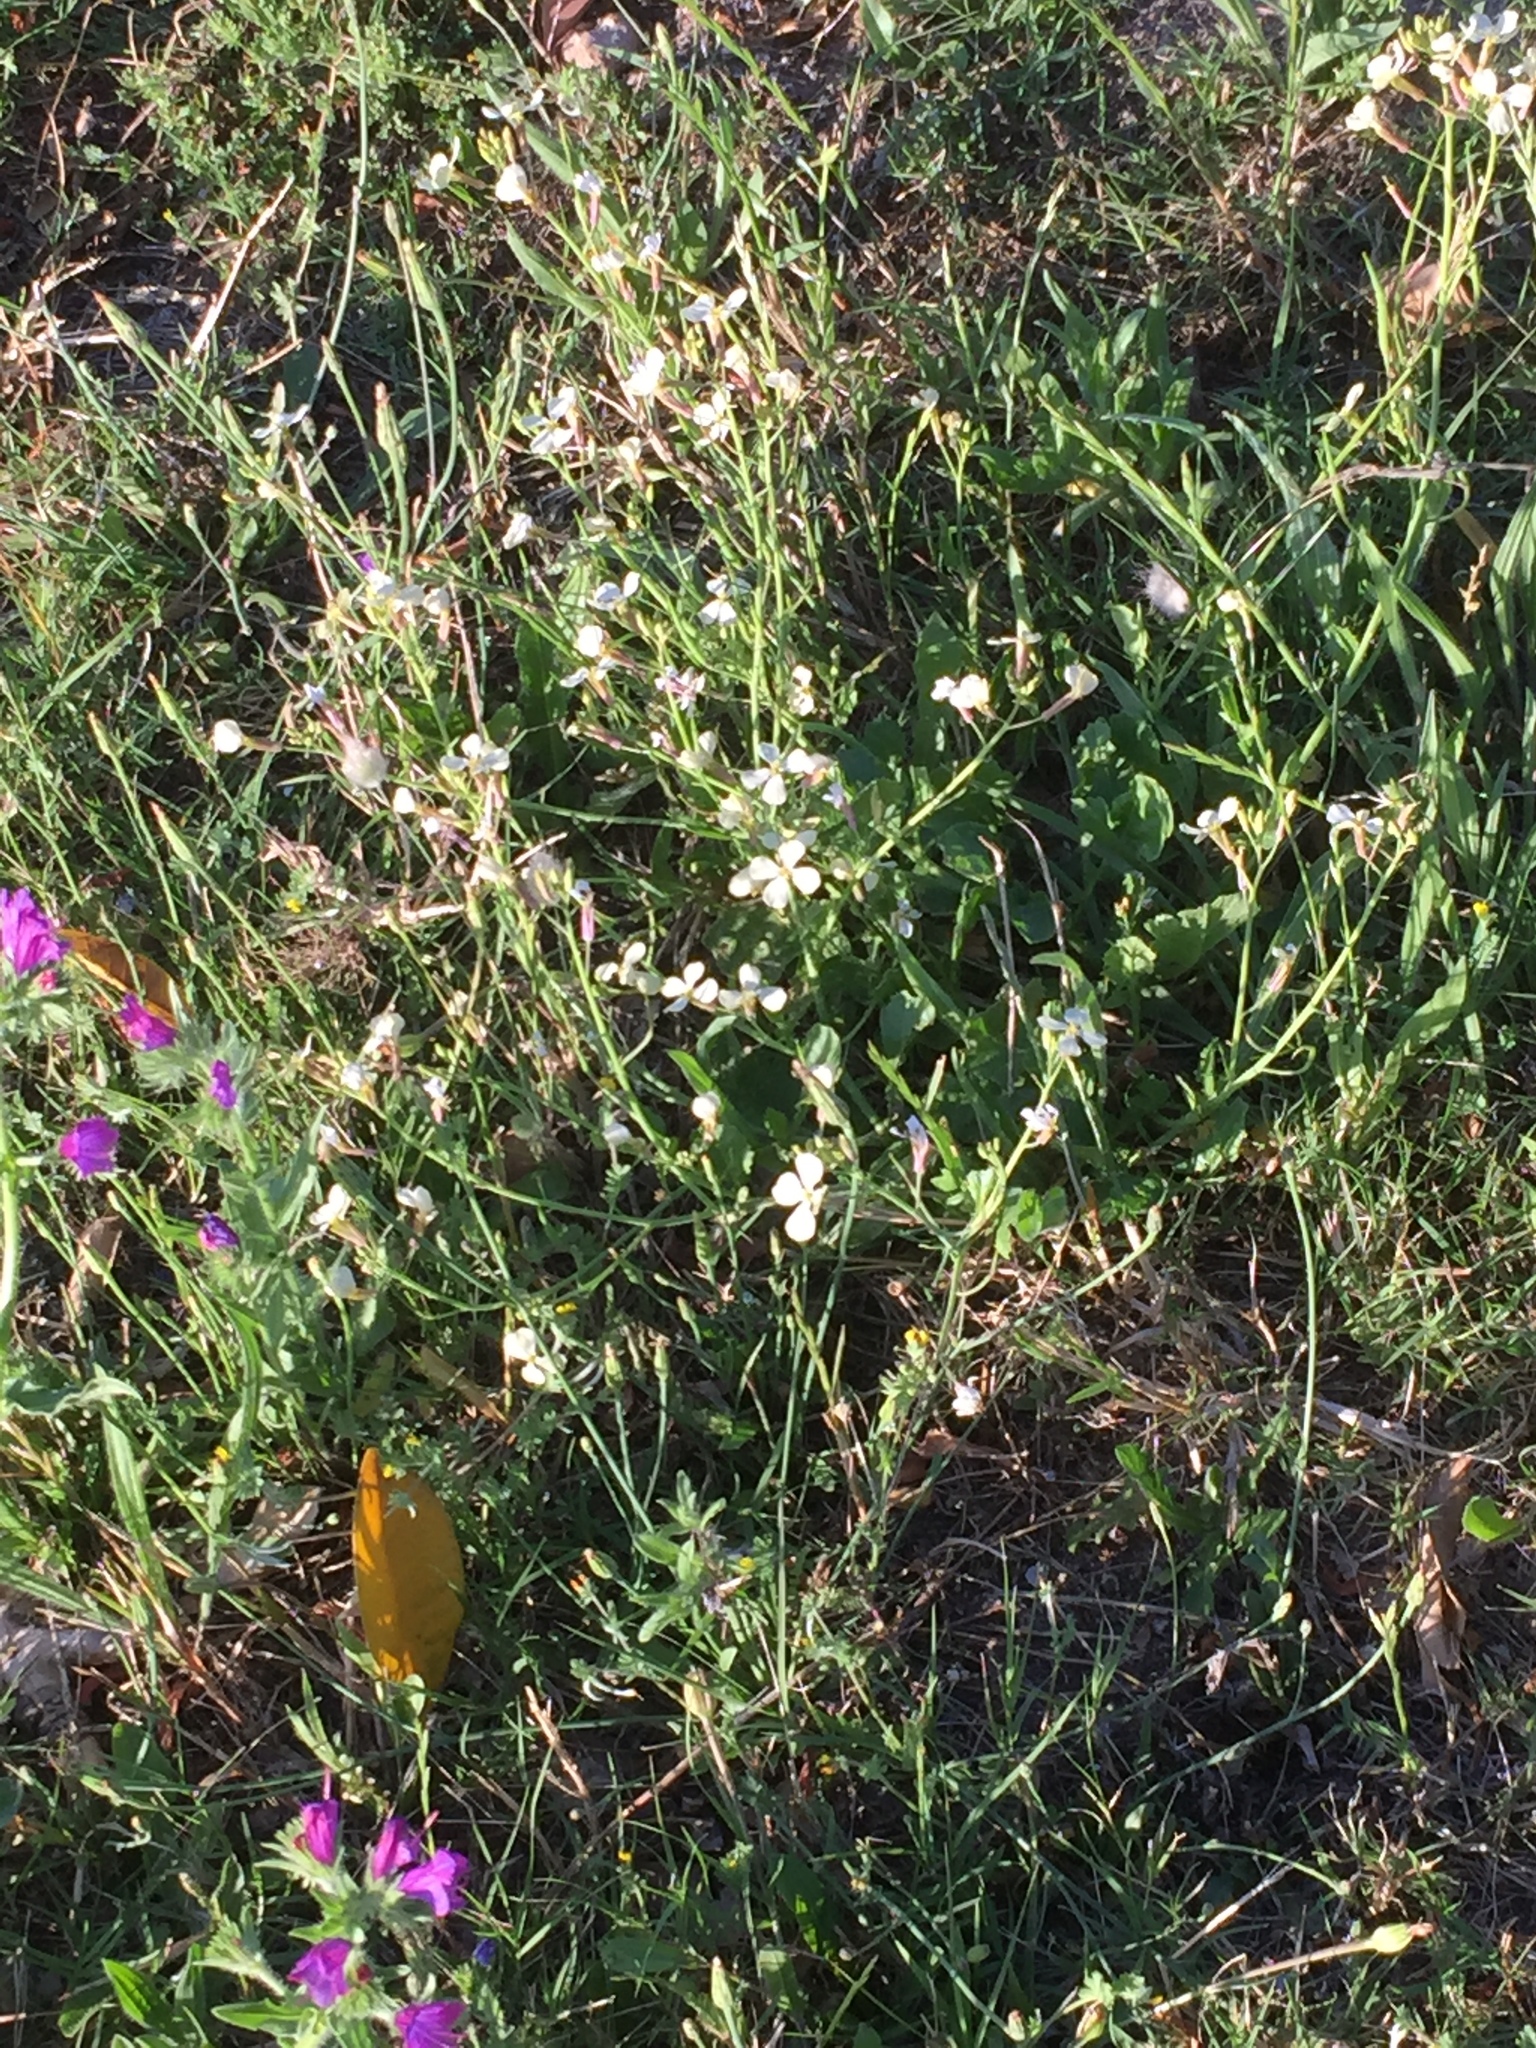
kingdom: Plantae
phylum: Tracheophyta
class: Magnoliopsida
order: Brassicales
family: Brassicaceae
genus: Raphanus
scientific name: Raphanus raphanistrum
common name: Wild radish
